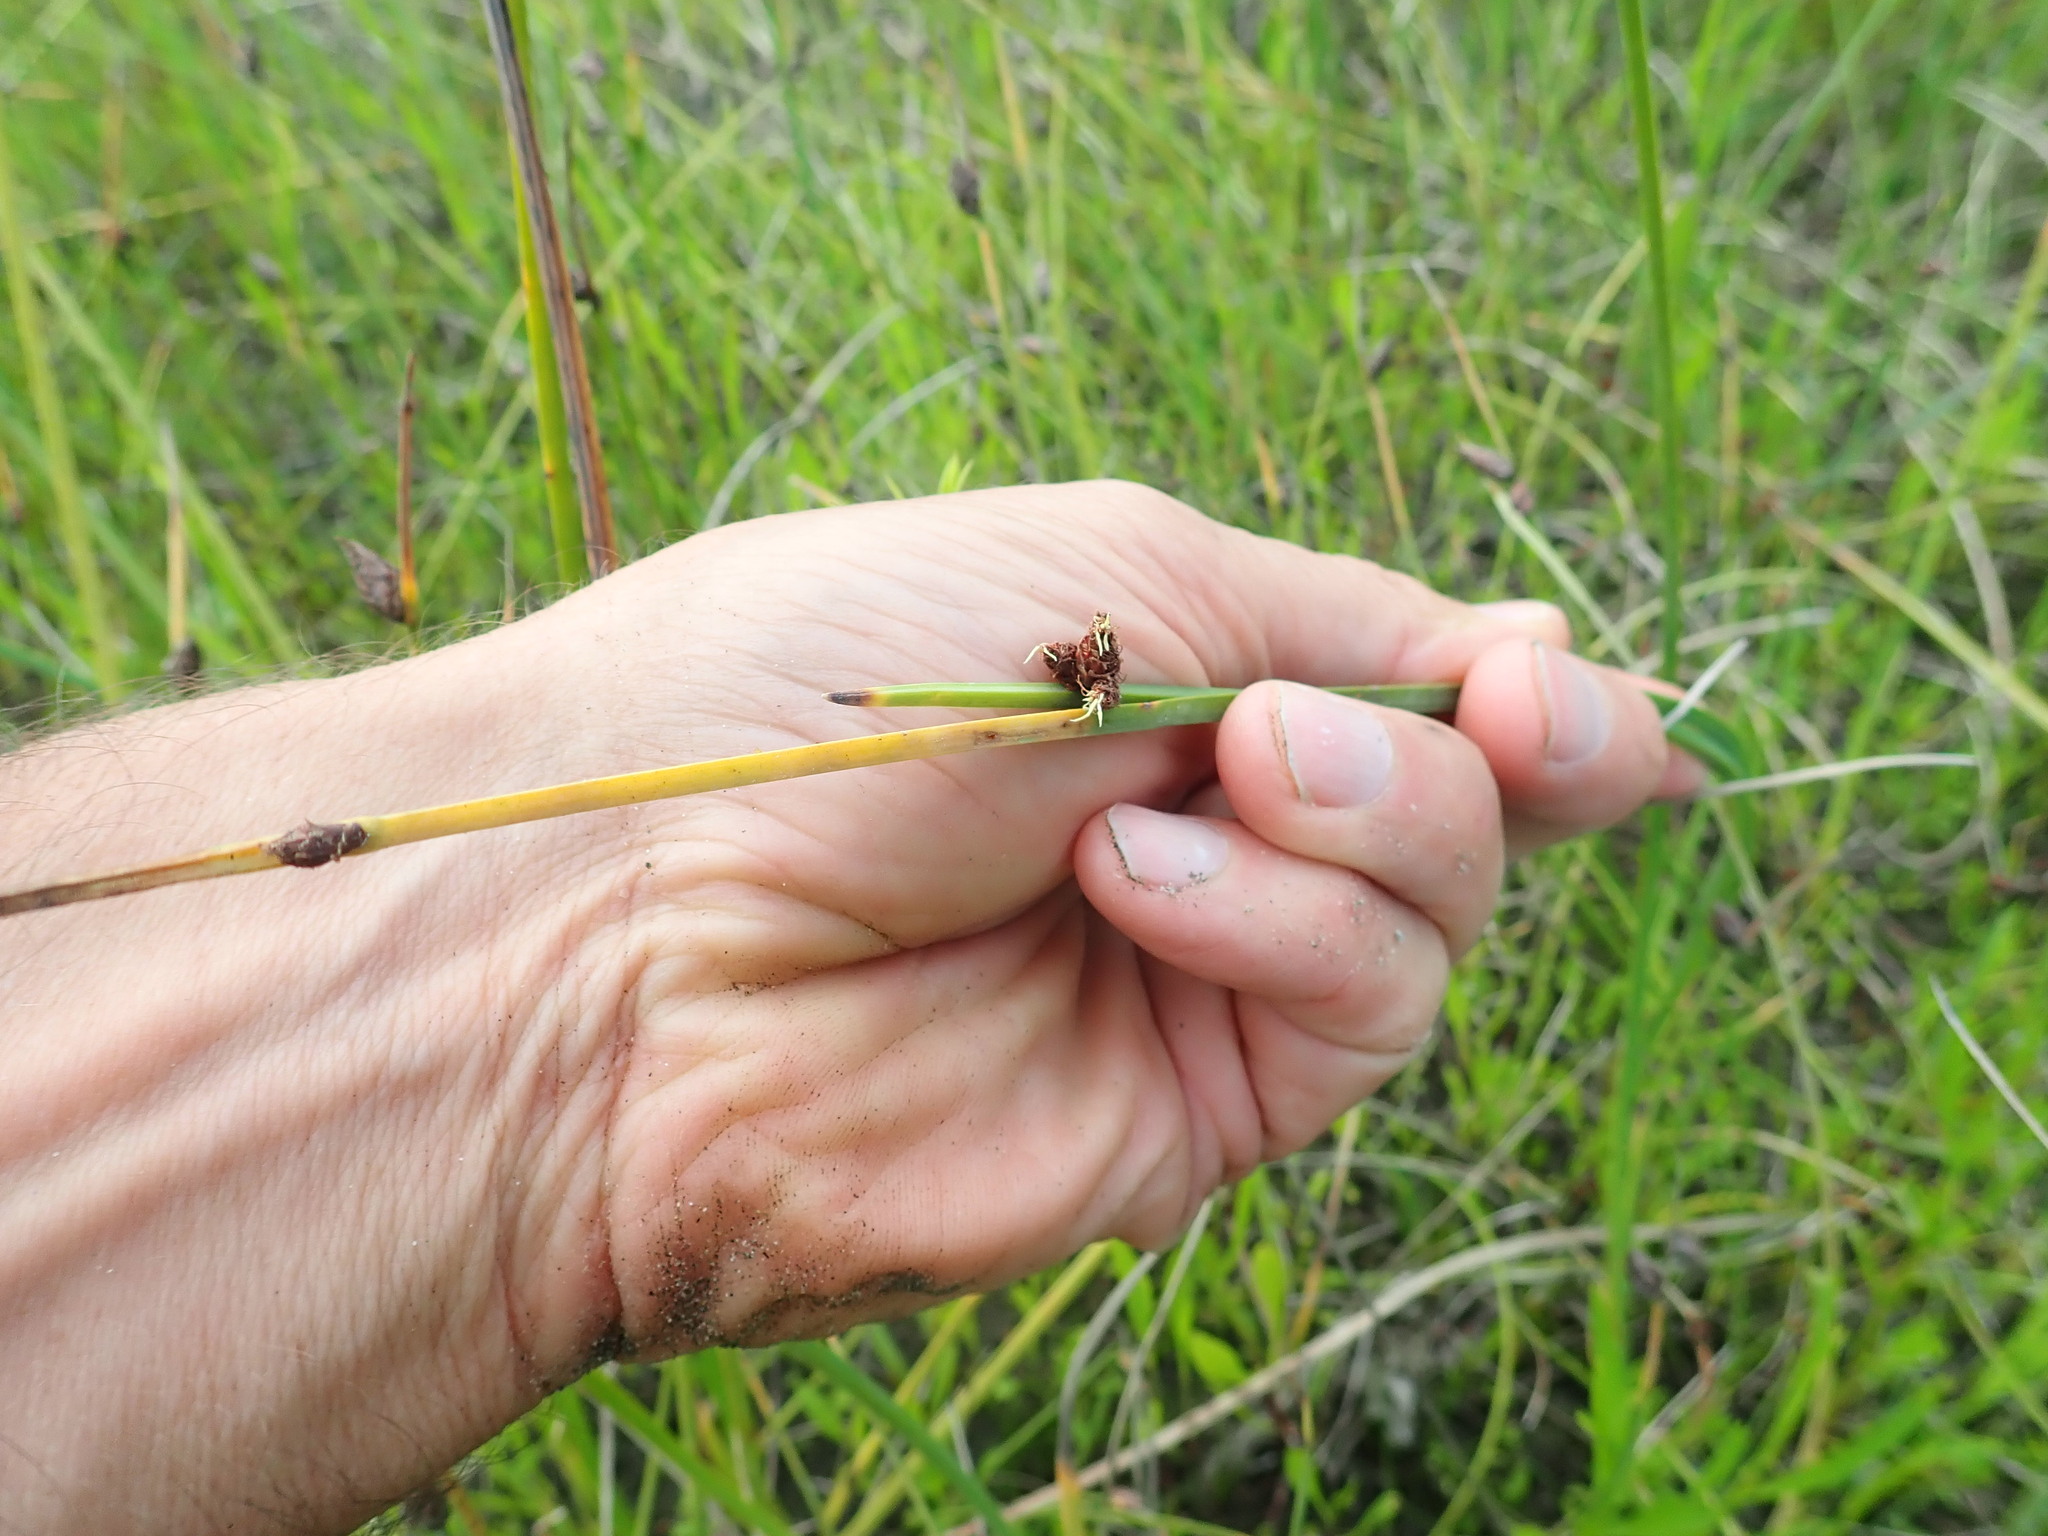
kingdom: Plantae
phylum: Tracheophyta
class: Liliopsida
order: Poales
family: Cyperaceae
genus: Schoenoplectus
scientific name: Schoenoplectus pungens
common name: Sharp club-rush
